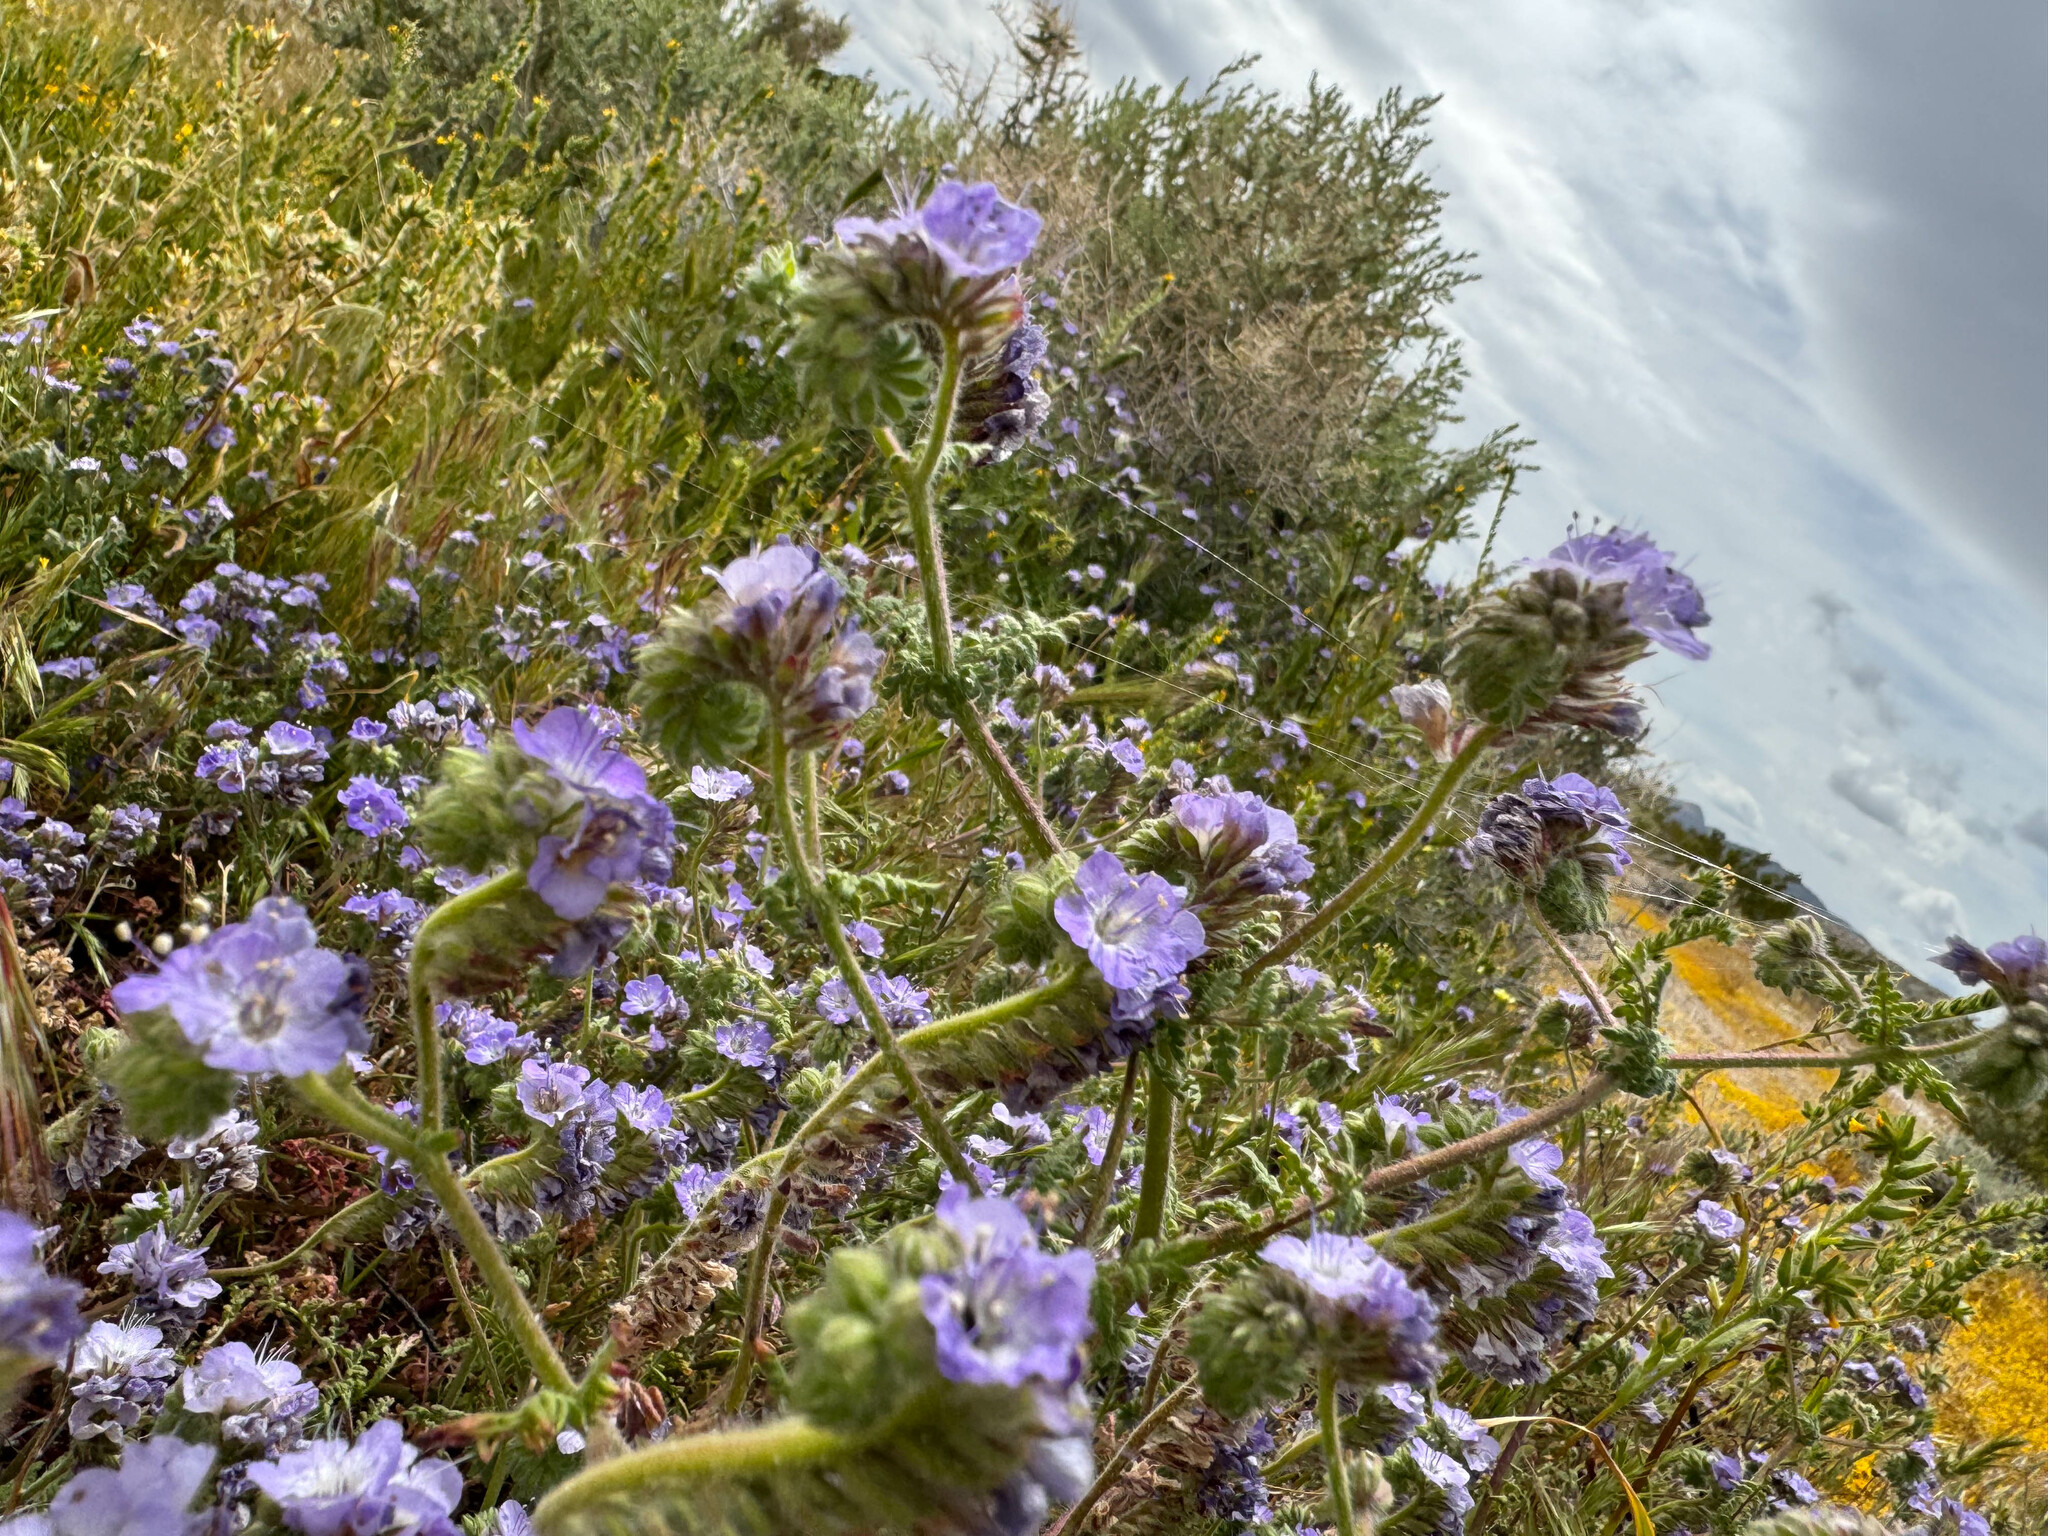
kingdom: Plantae
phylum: Tracheophyta
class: Magnoliopsida
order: Boraginales
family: Hydrophyllaceae
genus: Phacelia
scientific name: Phacelia distans
